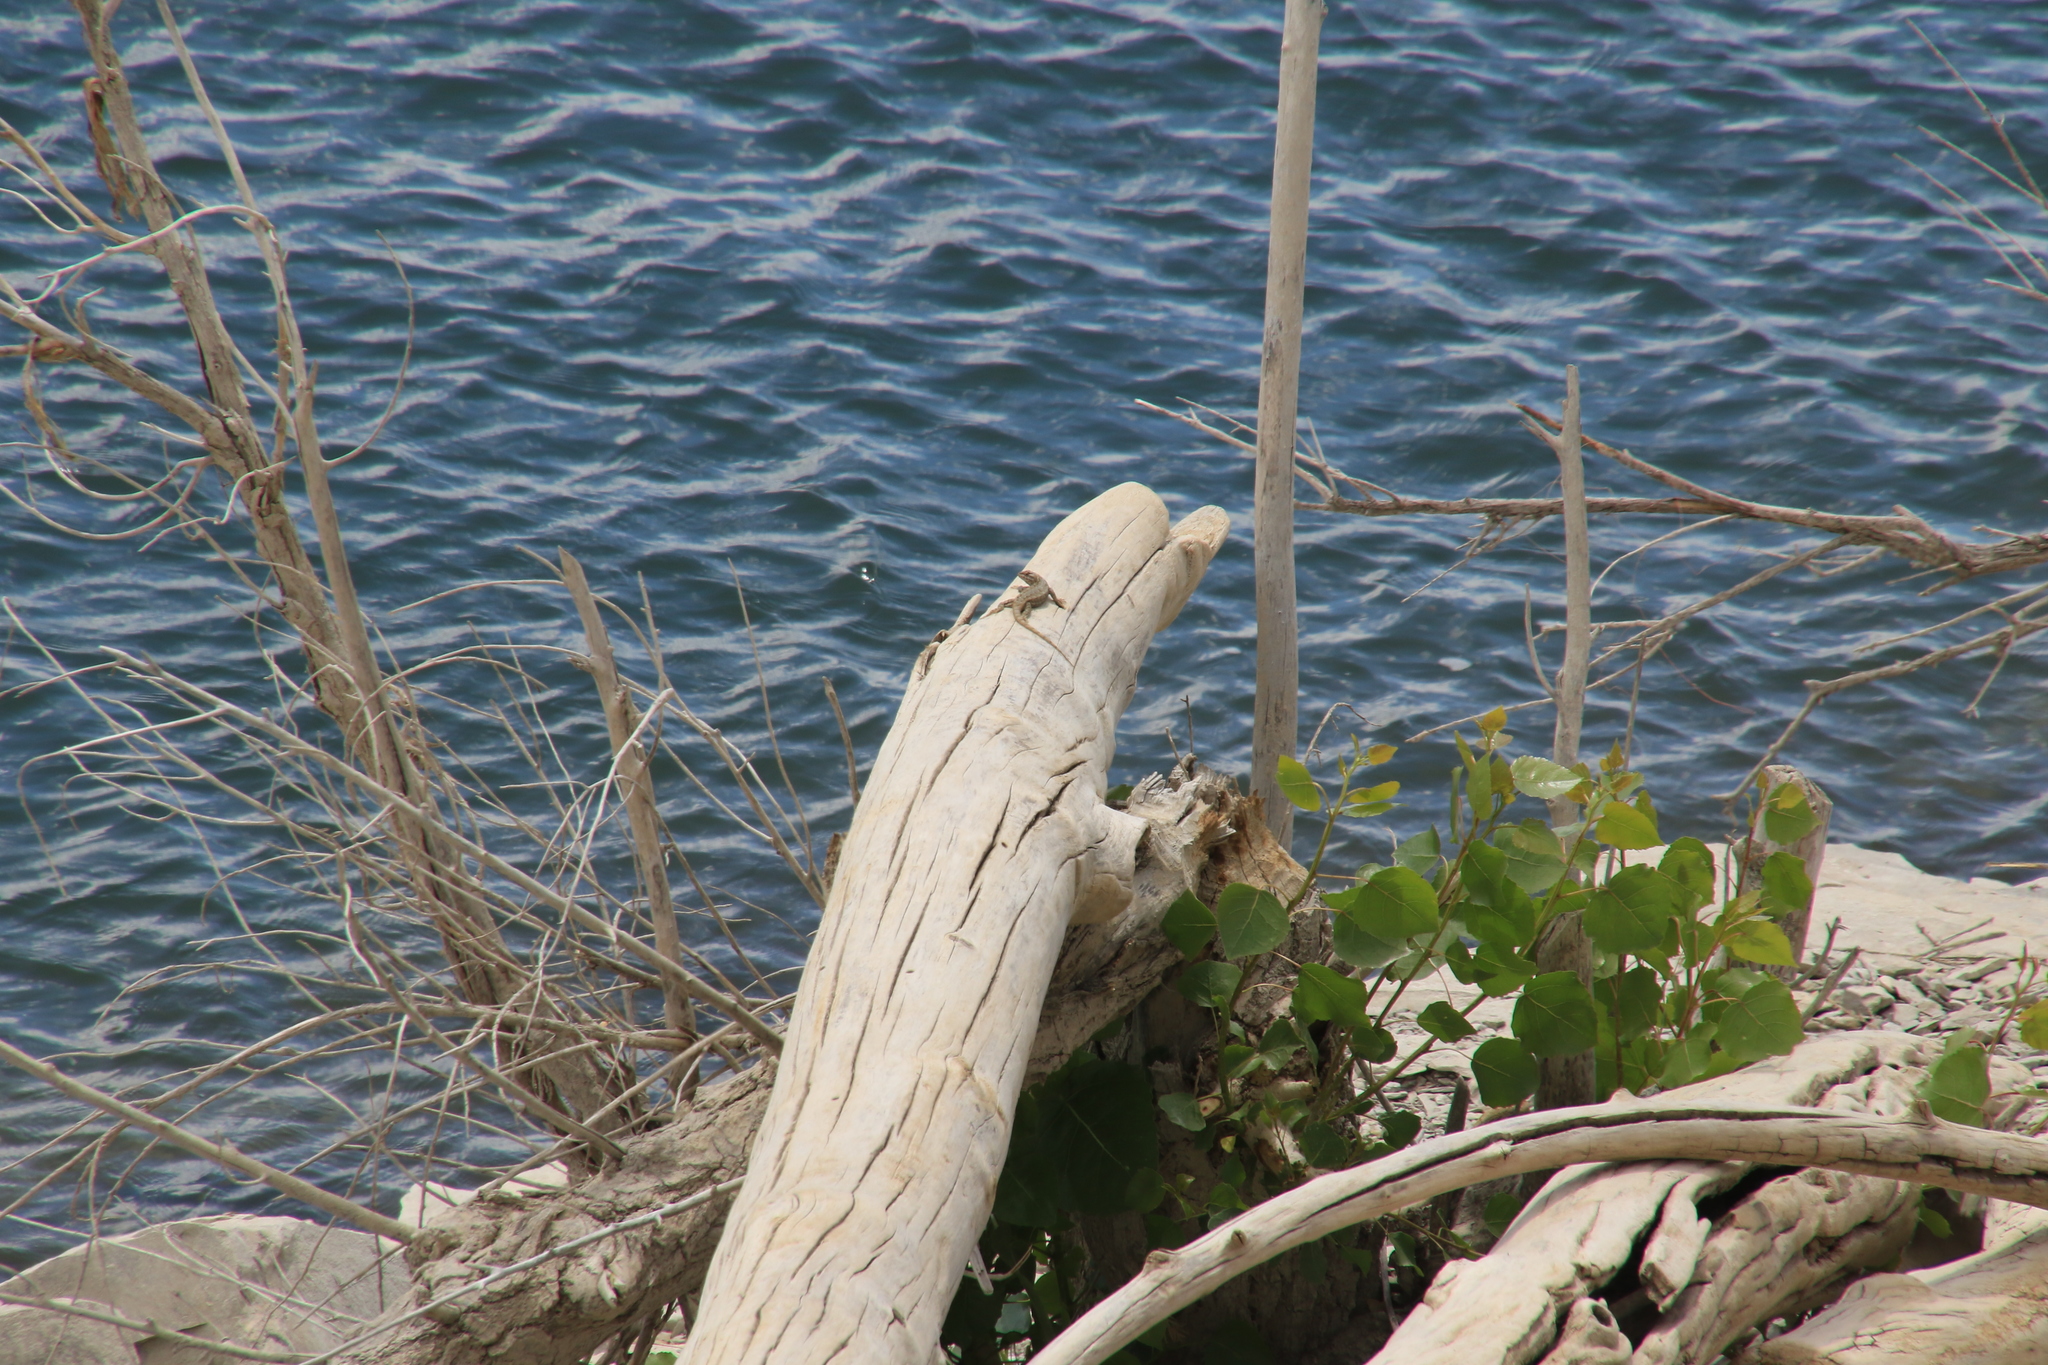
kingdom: Animalia
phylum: Chordata
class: Squamata
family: Phrynosomatidae
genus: Sceloporus
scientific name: Sceloporus consobrinus
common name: Southern prairie lizard
